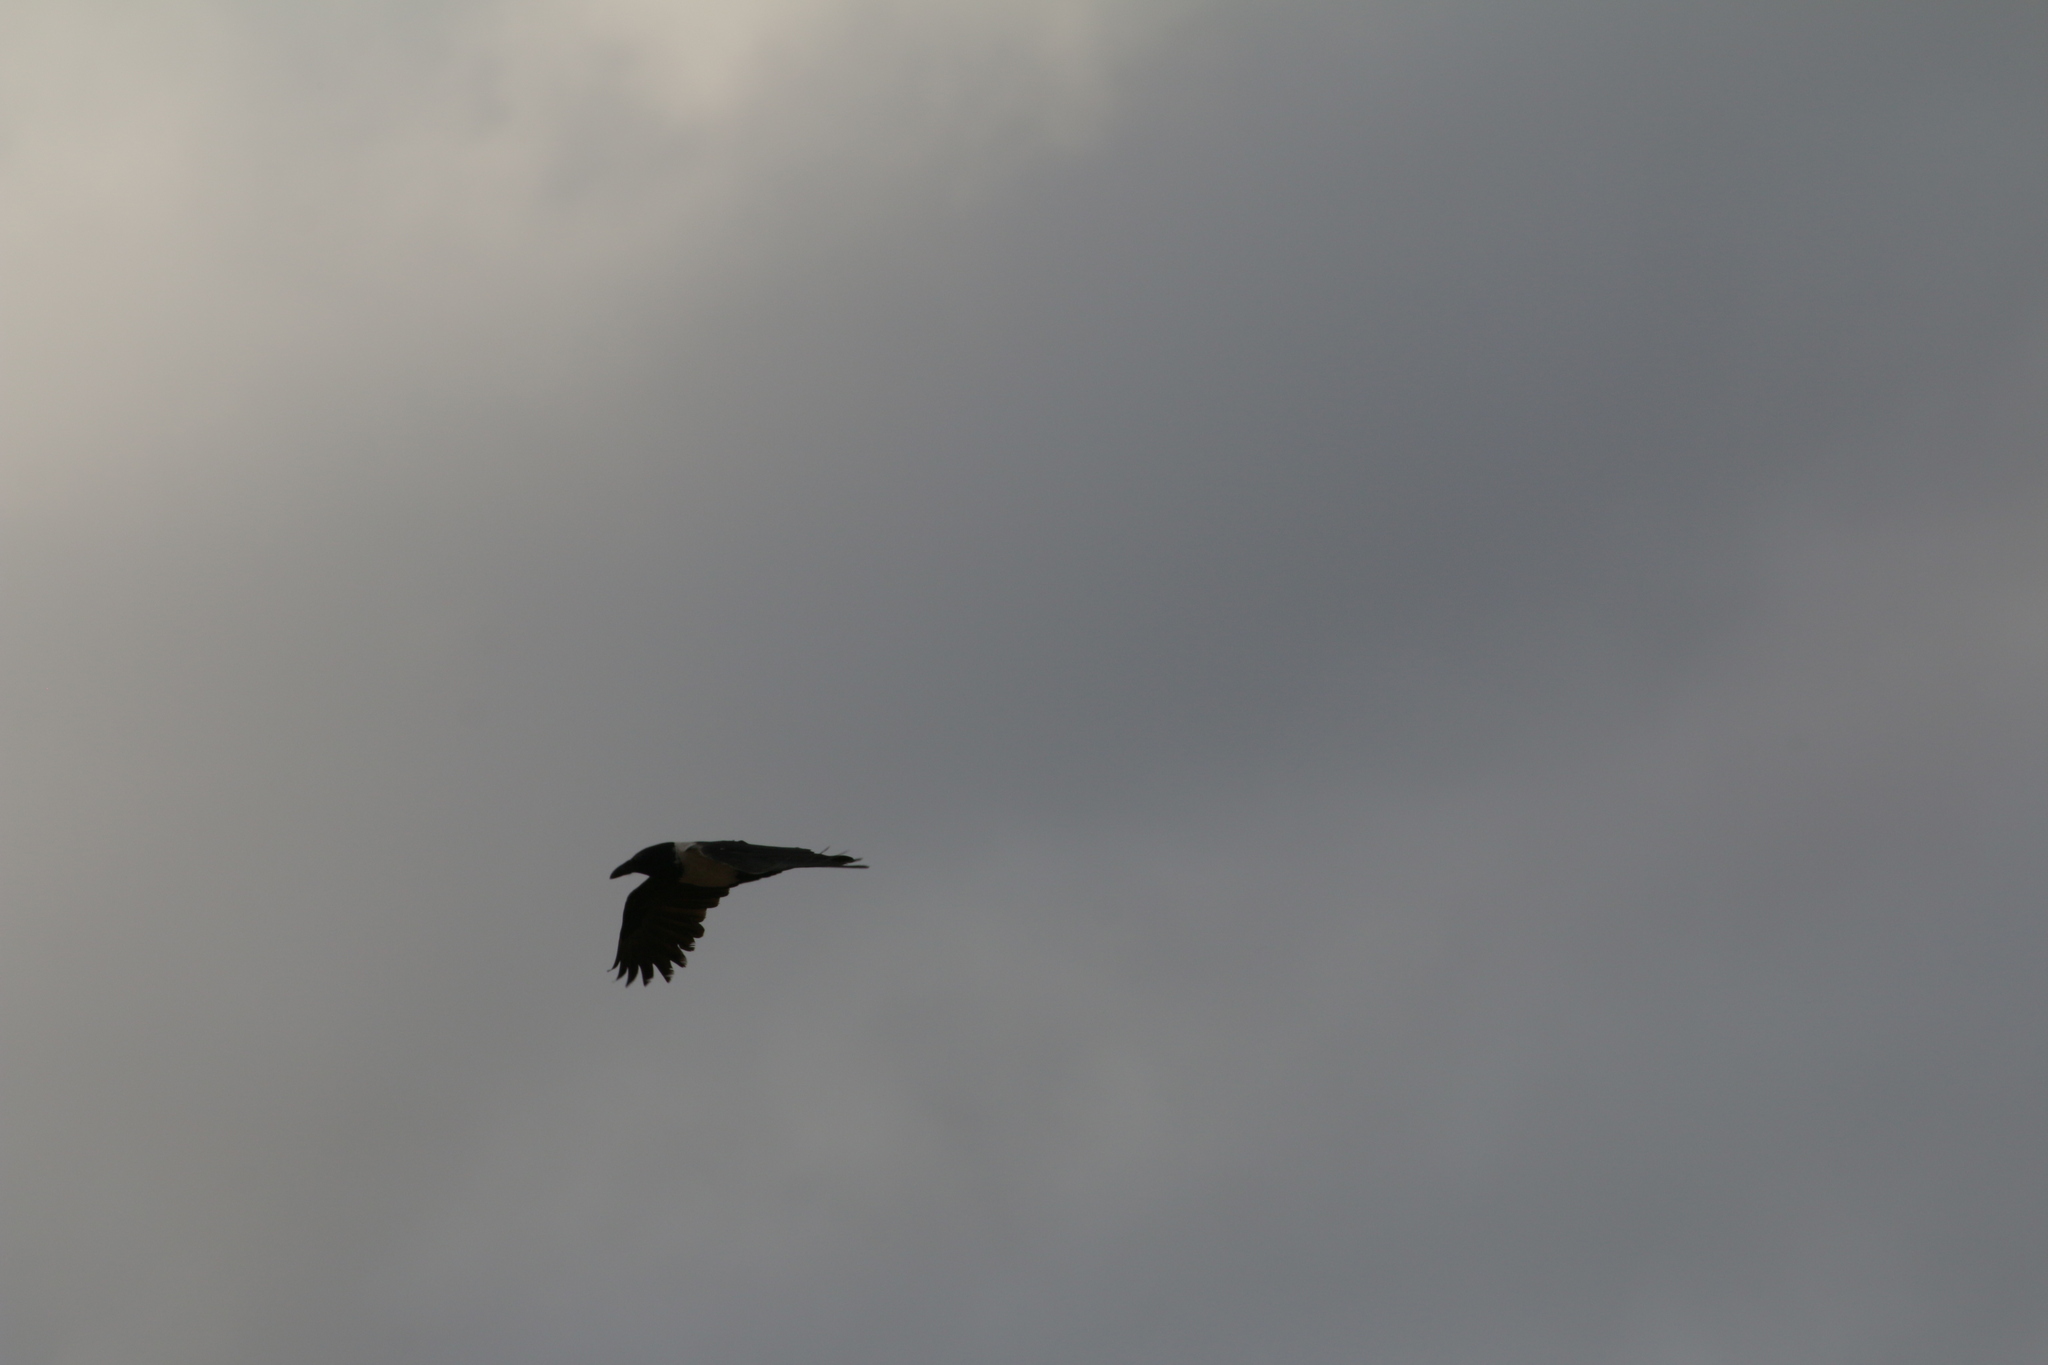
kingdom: Animalia
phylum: Chordata
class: Aves
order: Passeriformes
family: Corvidae
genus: Corvus
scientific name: Corvus albus
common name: Pied crow
